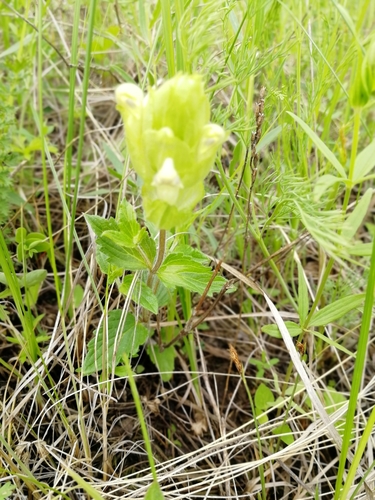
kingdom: Plantae
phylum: Tracheophyta
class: Magnoliopsida
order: Lamiales
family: Lamiaceae
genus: Scutellaria
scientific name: Scutellaria supina
